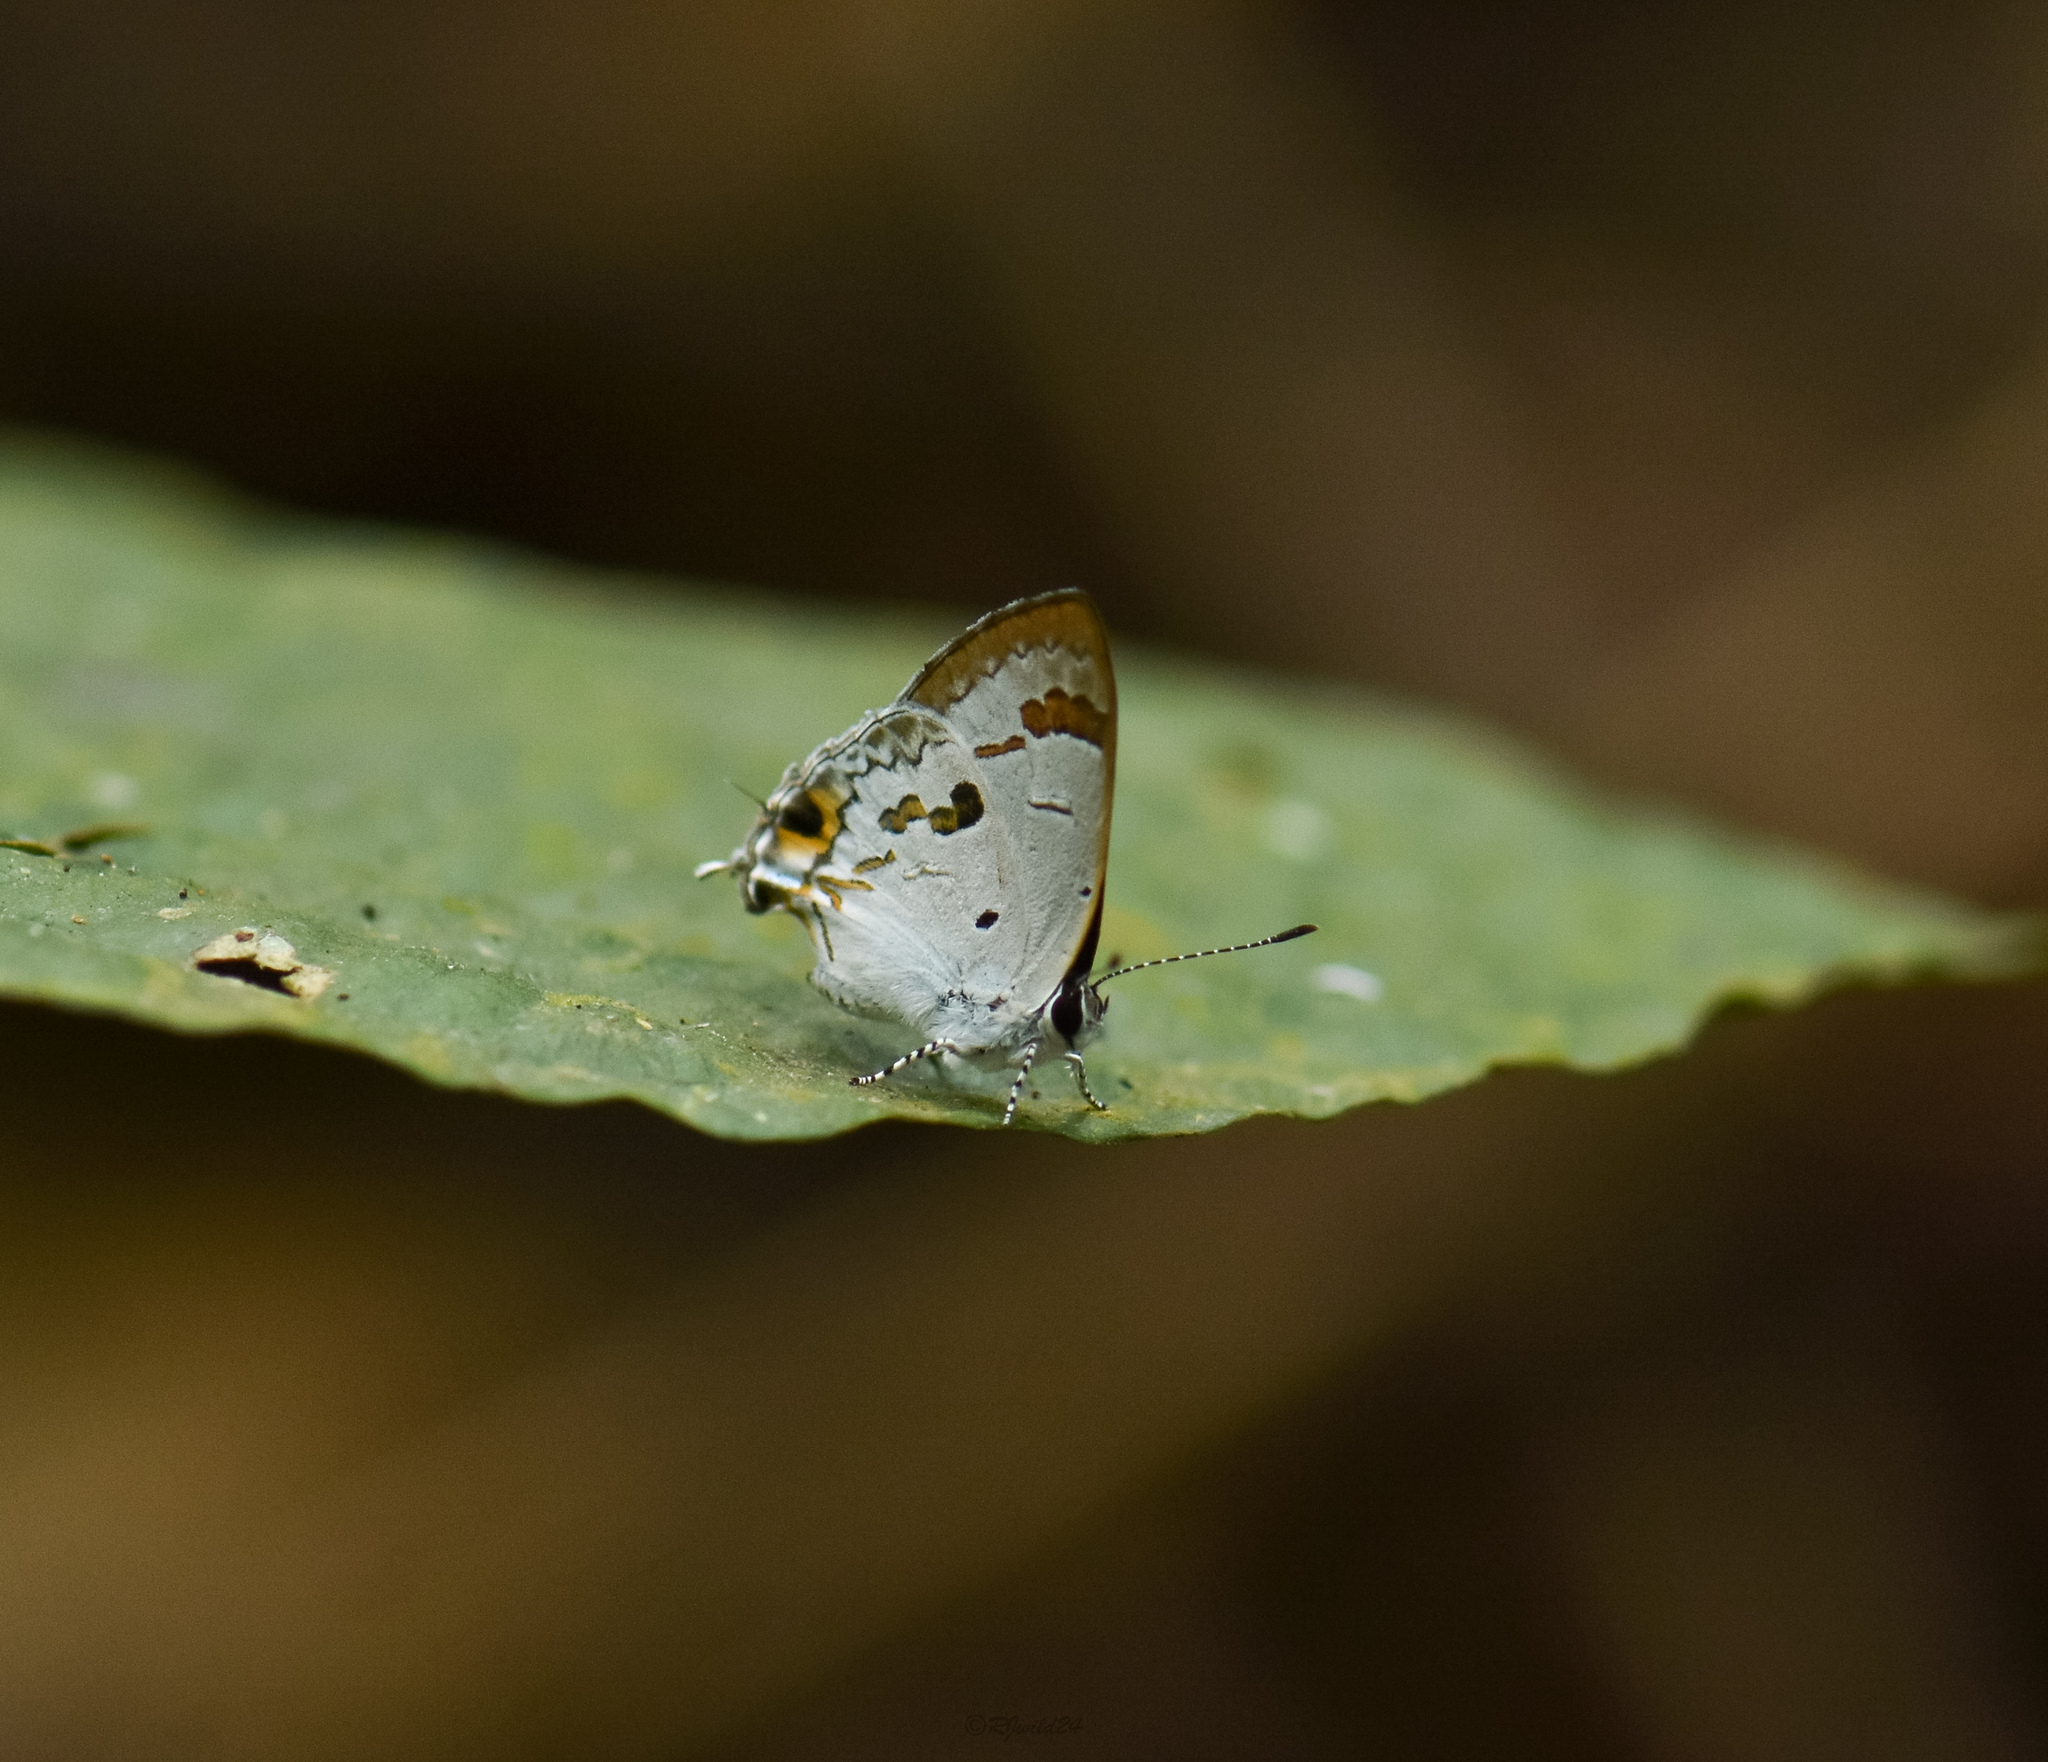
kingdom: Animalia
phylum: Arthropoda
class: Insecta
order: Lepidoptera
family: Lycaenidae
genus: Chliaria
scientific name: Chliaria othona
